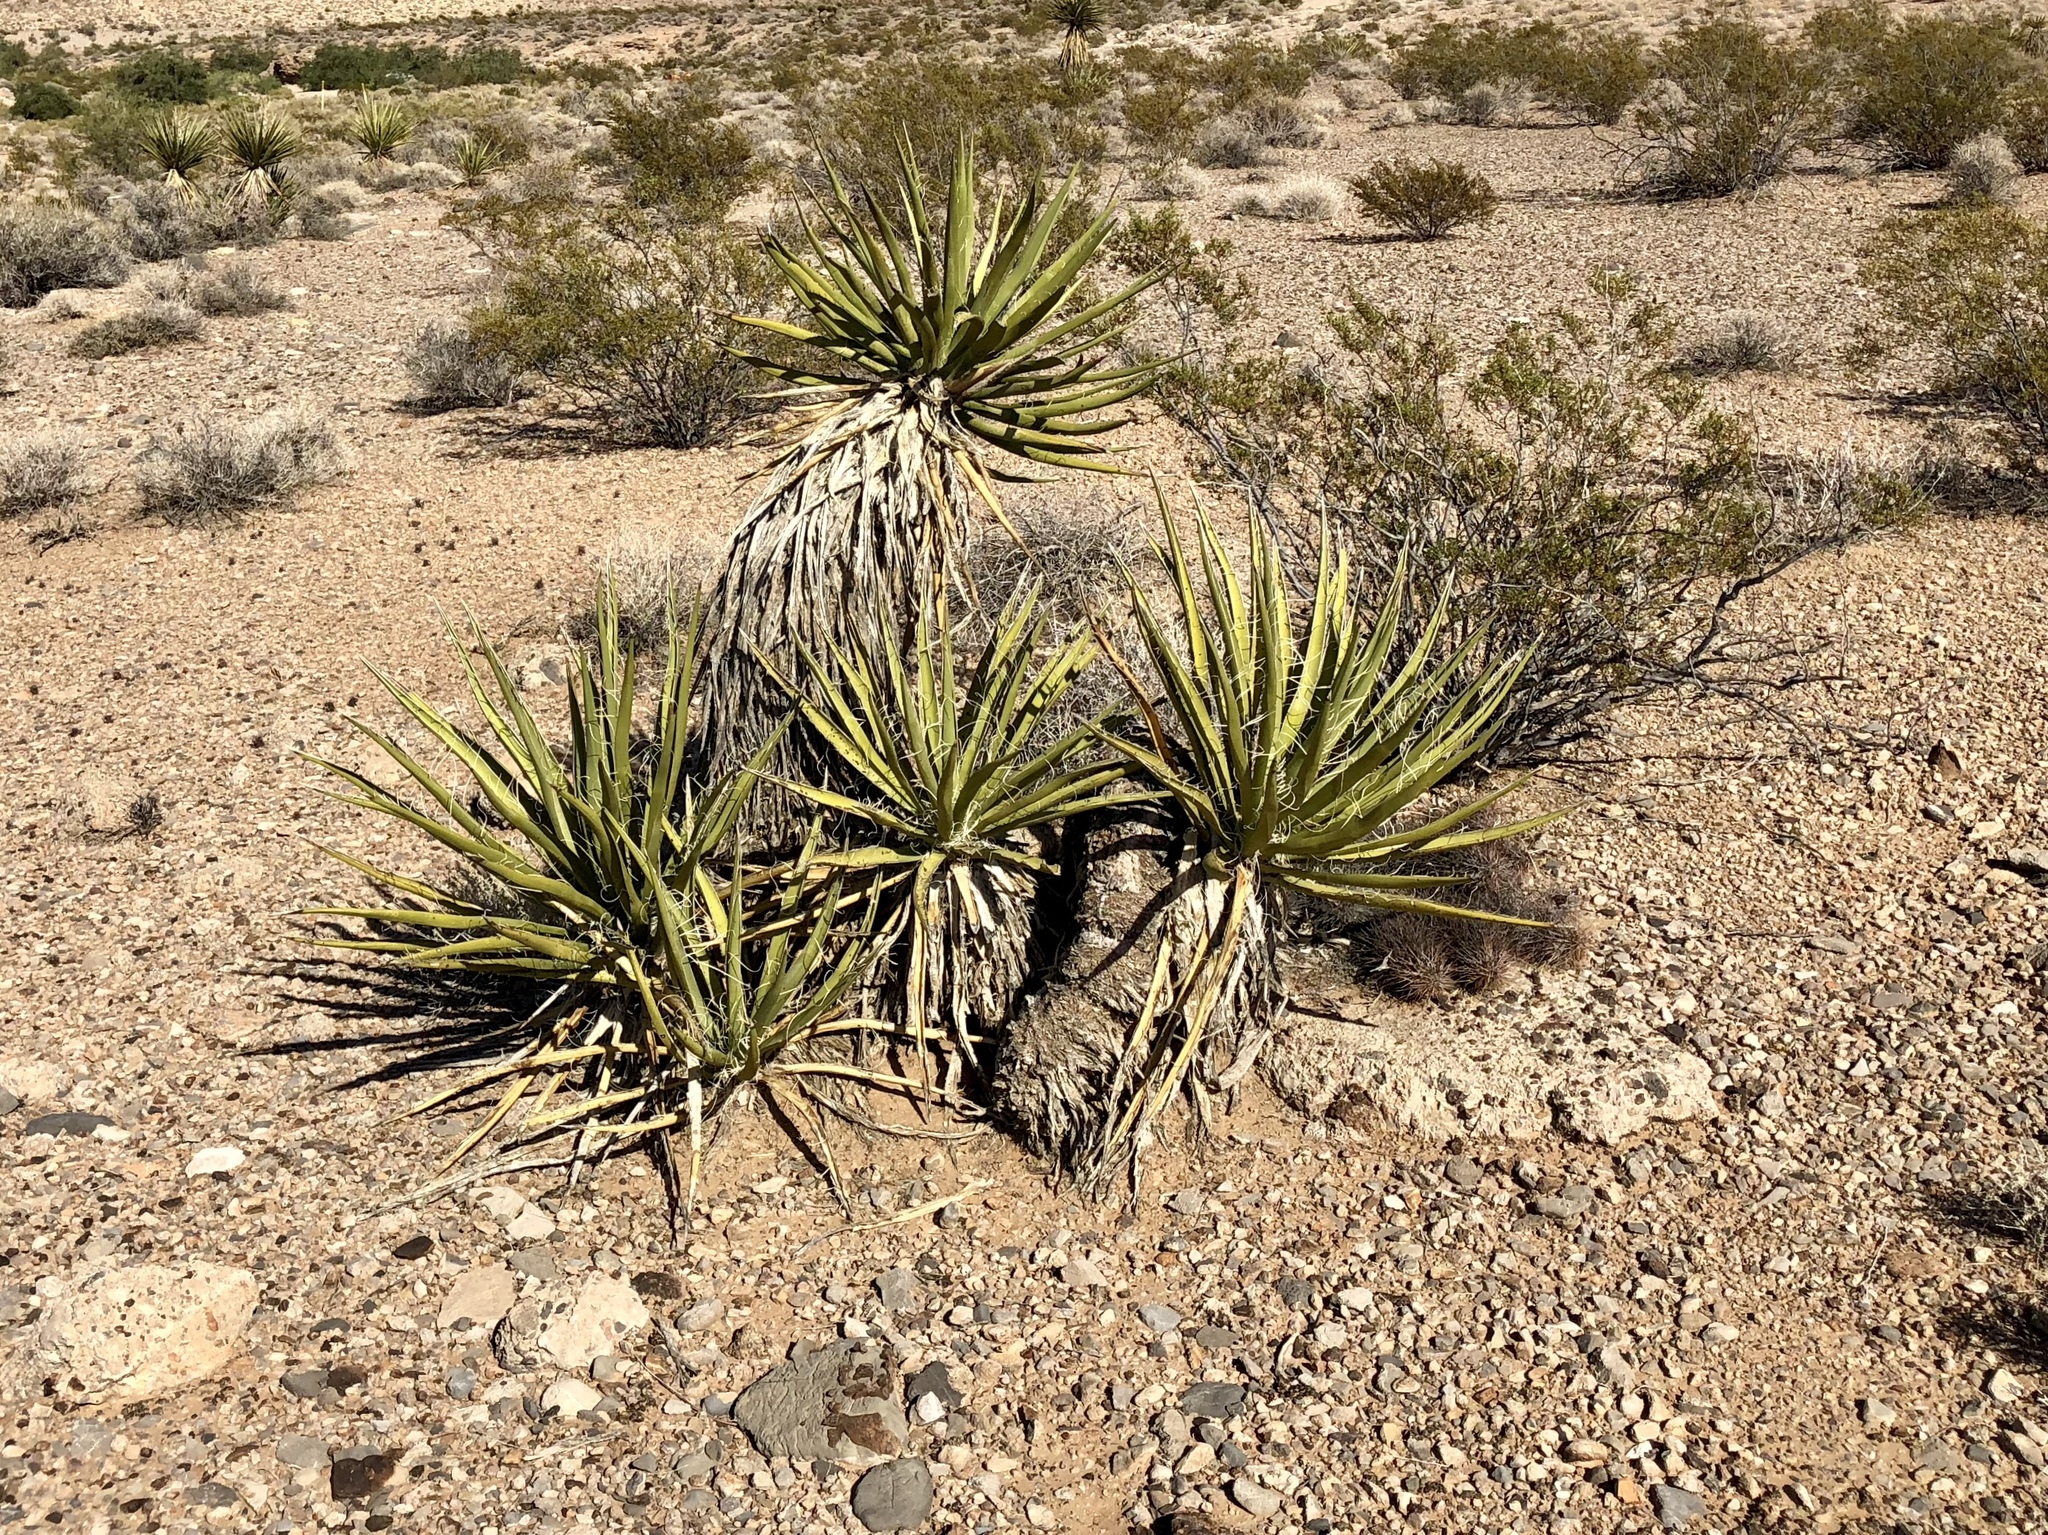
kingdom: Plantae
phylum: Tracheophyta
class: Liliopsida
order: Asparagales
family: Asparagaceae
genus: Yucca
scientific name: Yucca schidigera
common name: Mojave yucca
